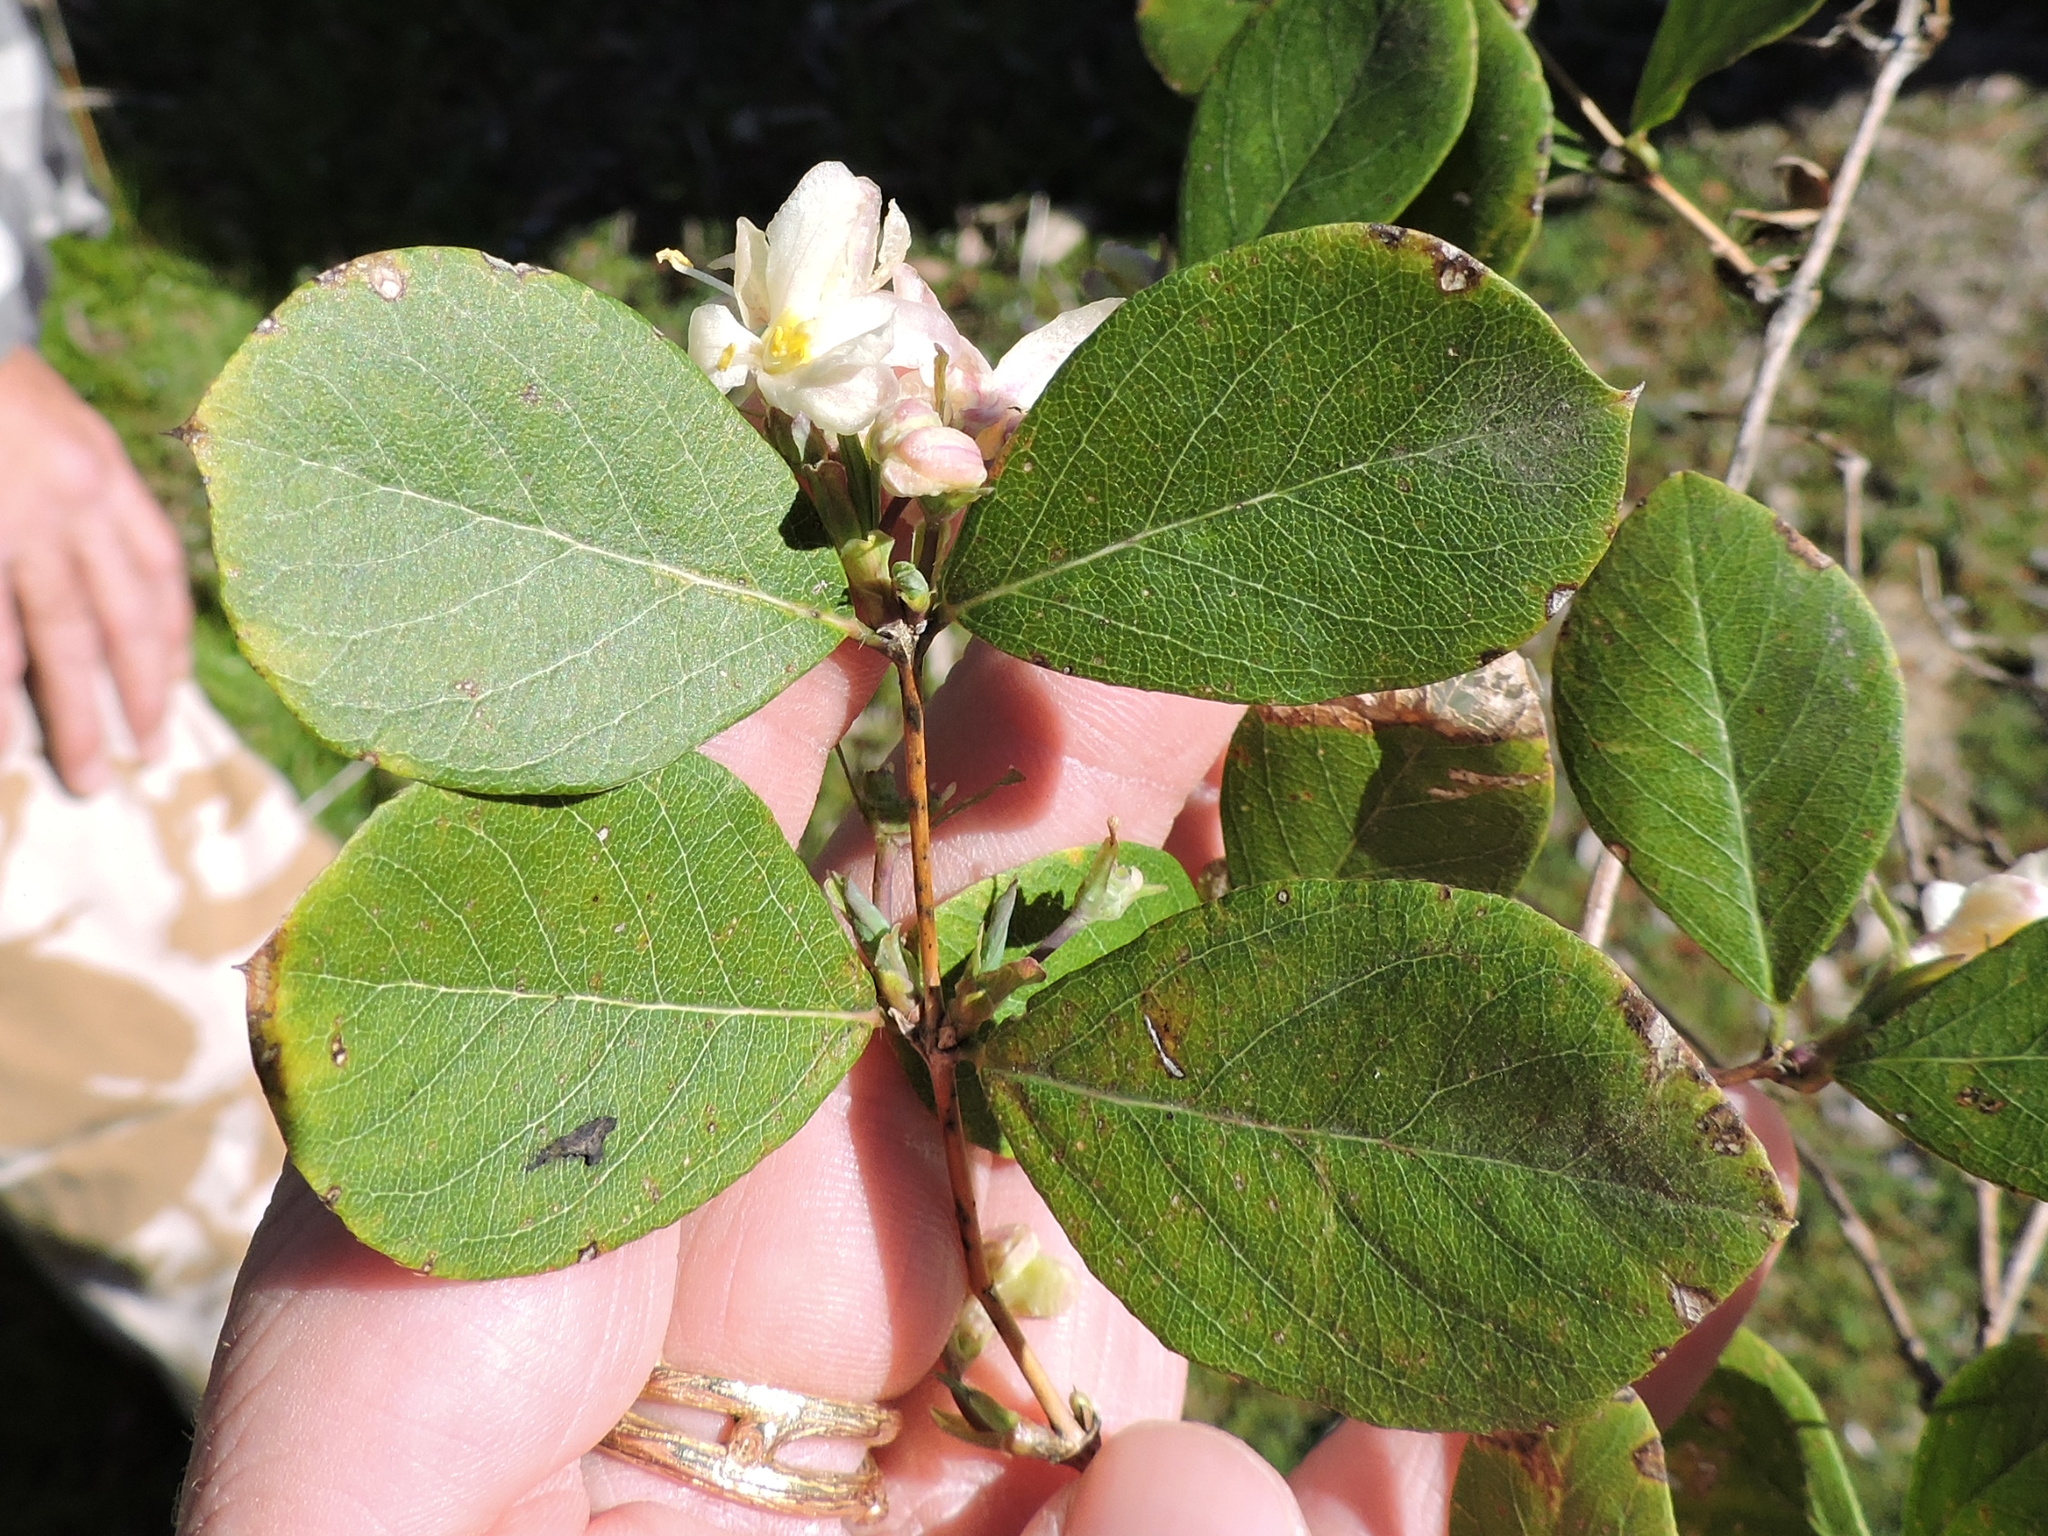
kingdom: Plantae
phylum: Tracheophyta
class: Magnoliopsida
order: Dipsacales
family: Caprifoliaceae
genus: Lonicera
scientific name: Lonicera maackii
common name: Amur honeysuckle
